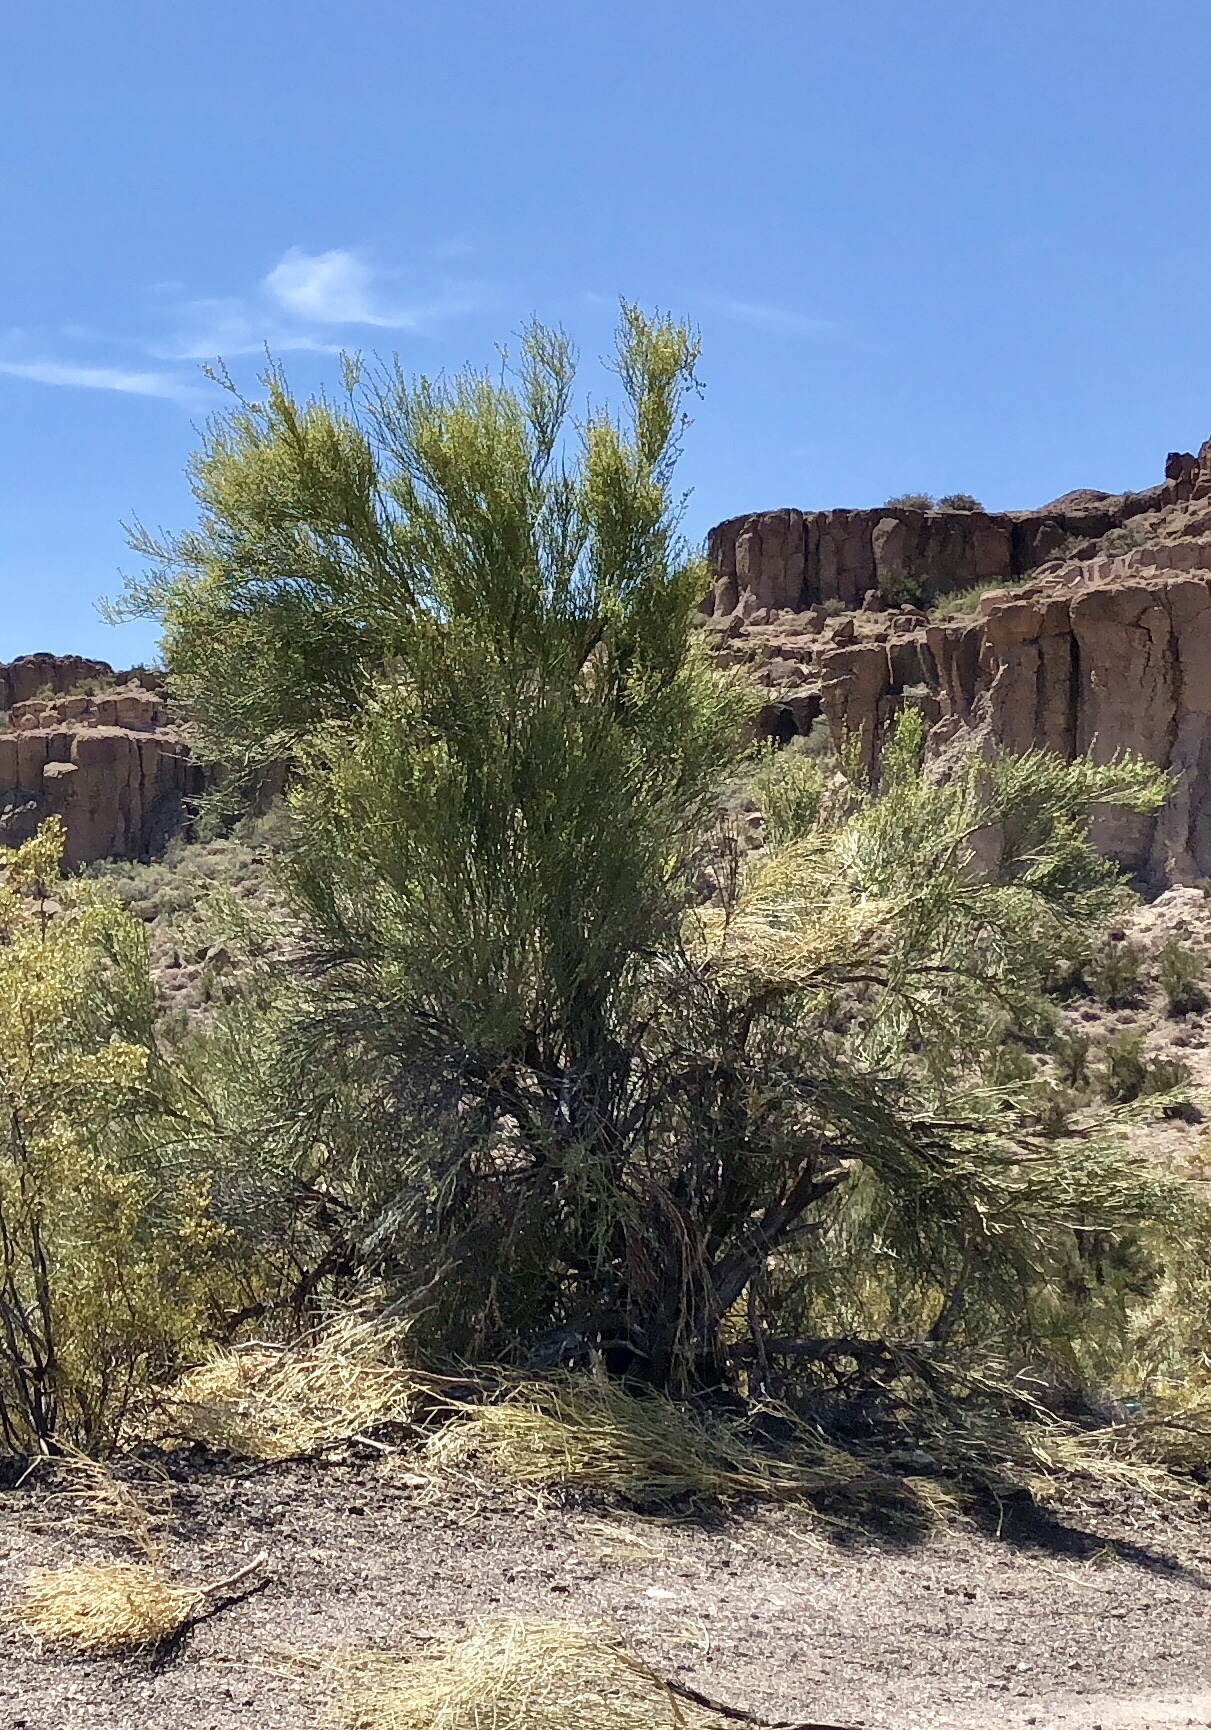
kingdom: Plantae
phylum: Tracheophyta
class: Magnoliopsida
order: Celastrales
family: Celastraceae
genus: Canotia
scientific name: Canotia holacantha
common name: Crucifixion thorns
